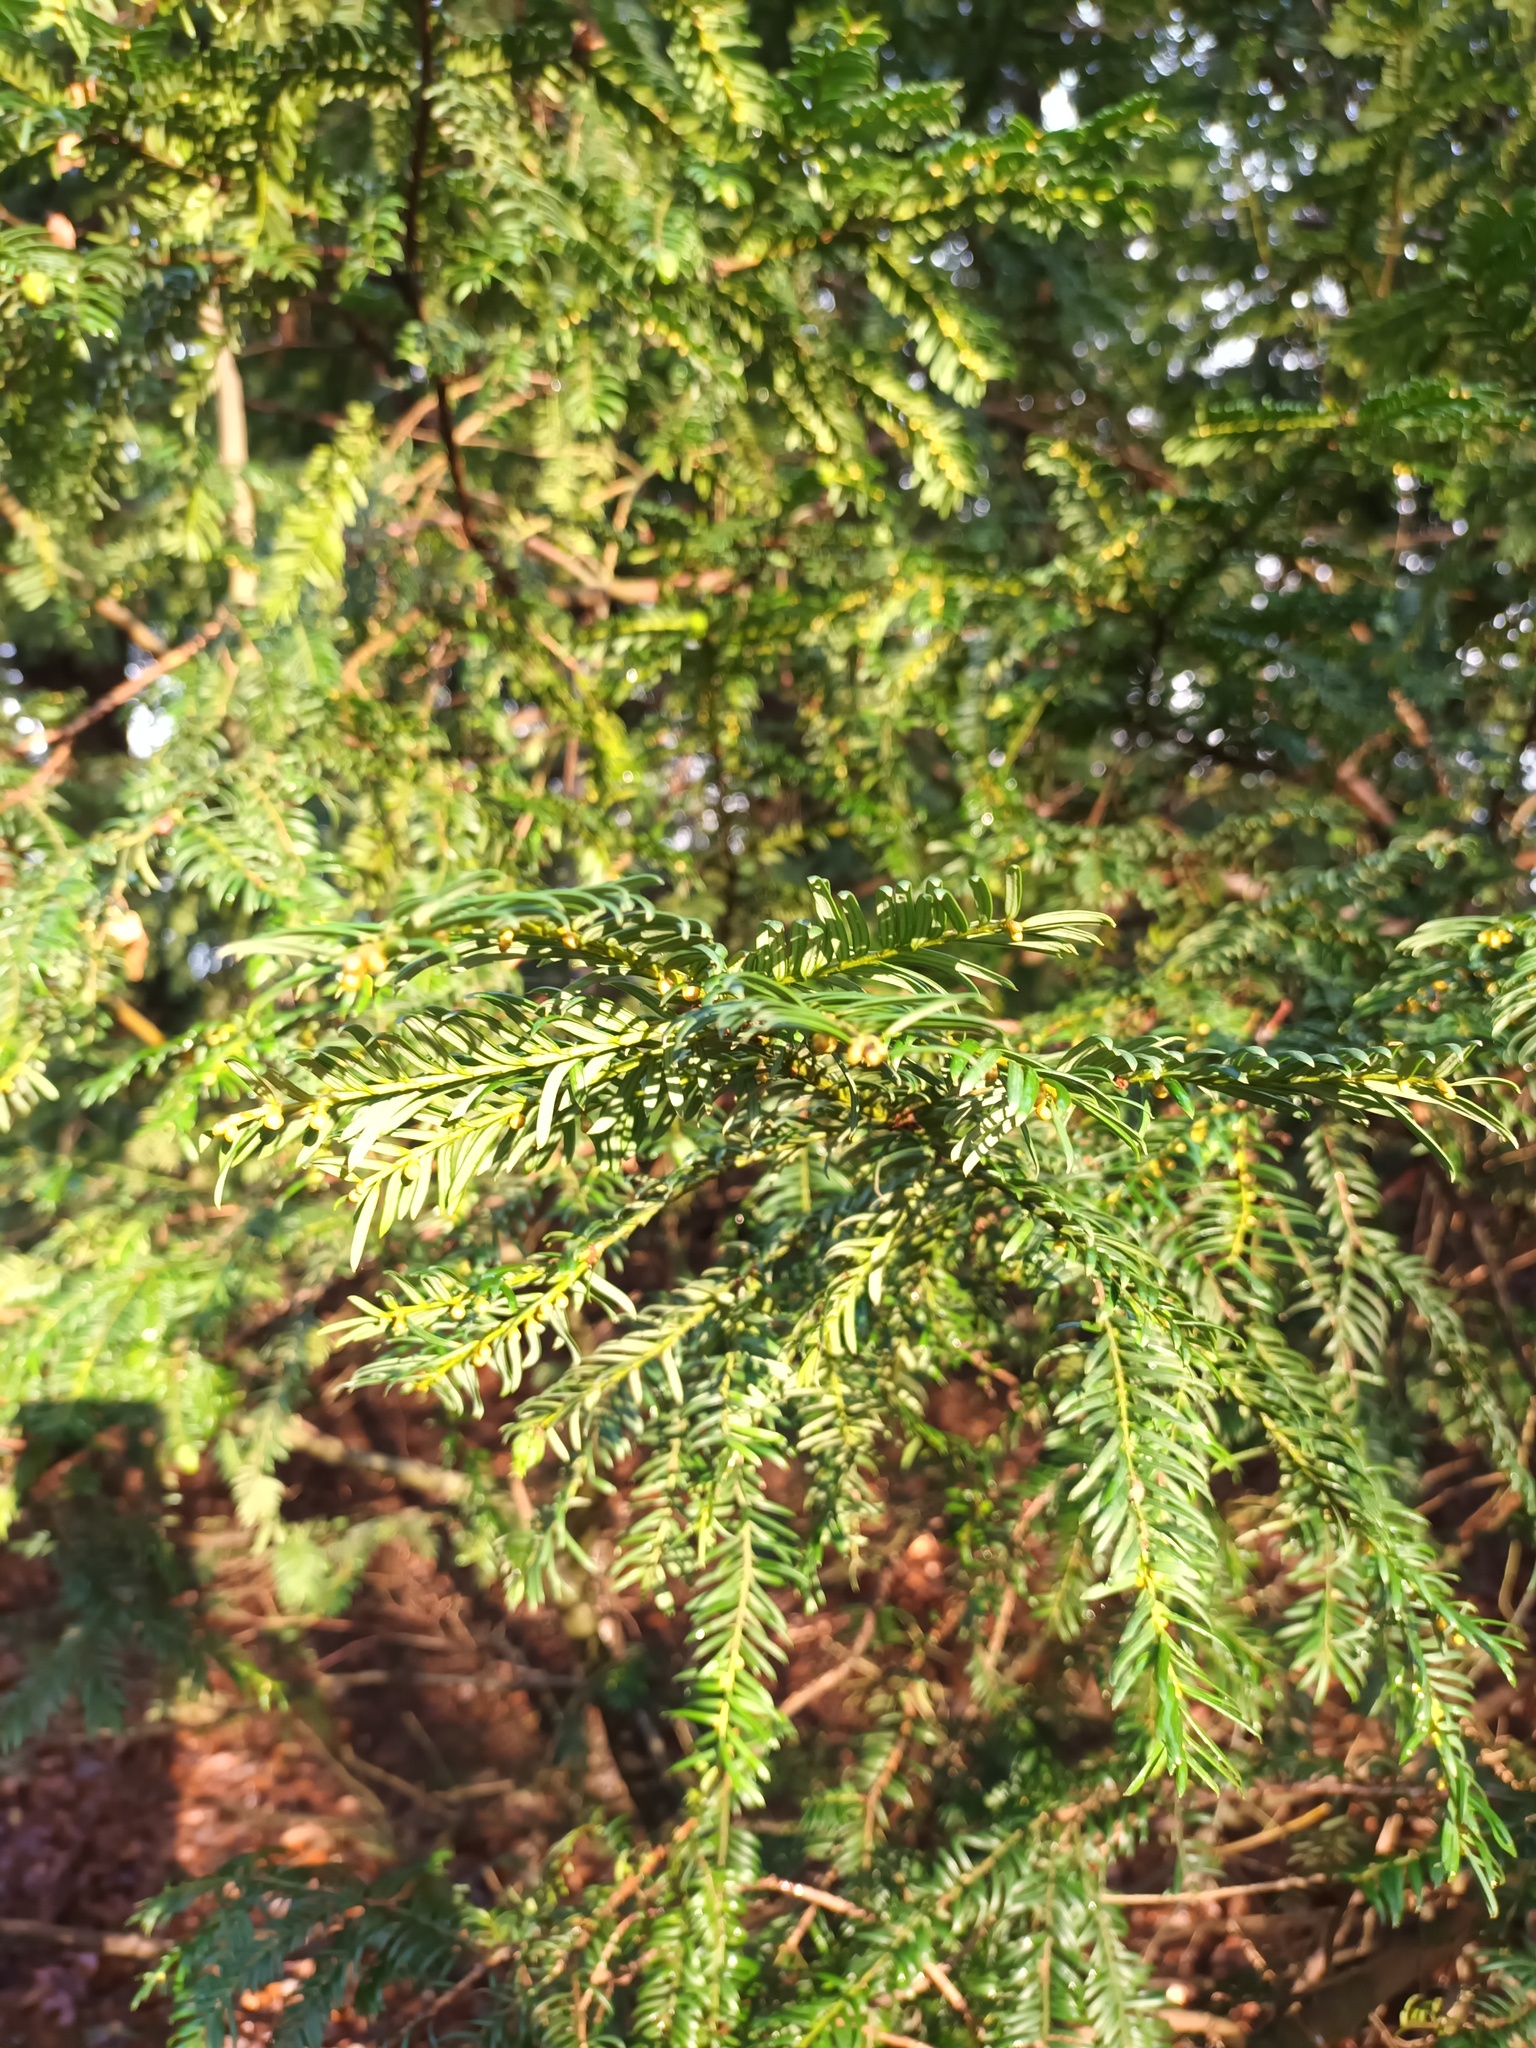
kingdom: Plantae
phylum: Tracheophyta
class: Pinopsida
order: Pinales
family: Taxaceae
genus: Taxus
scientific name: Taxus baccata
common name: Yew
